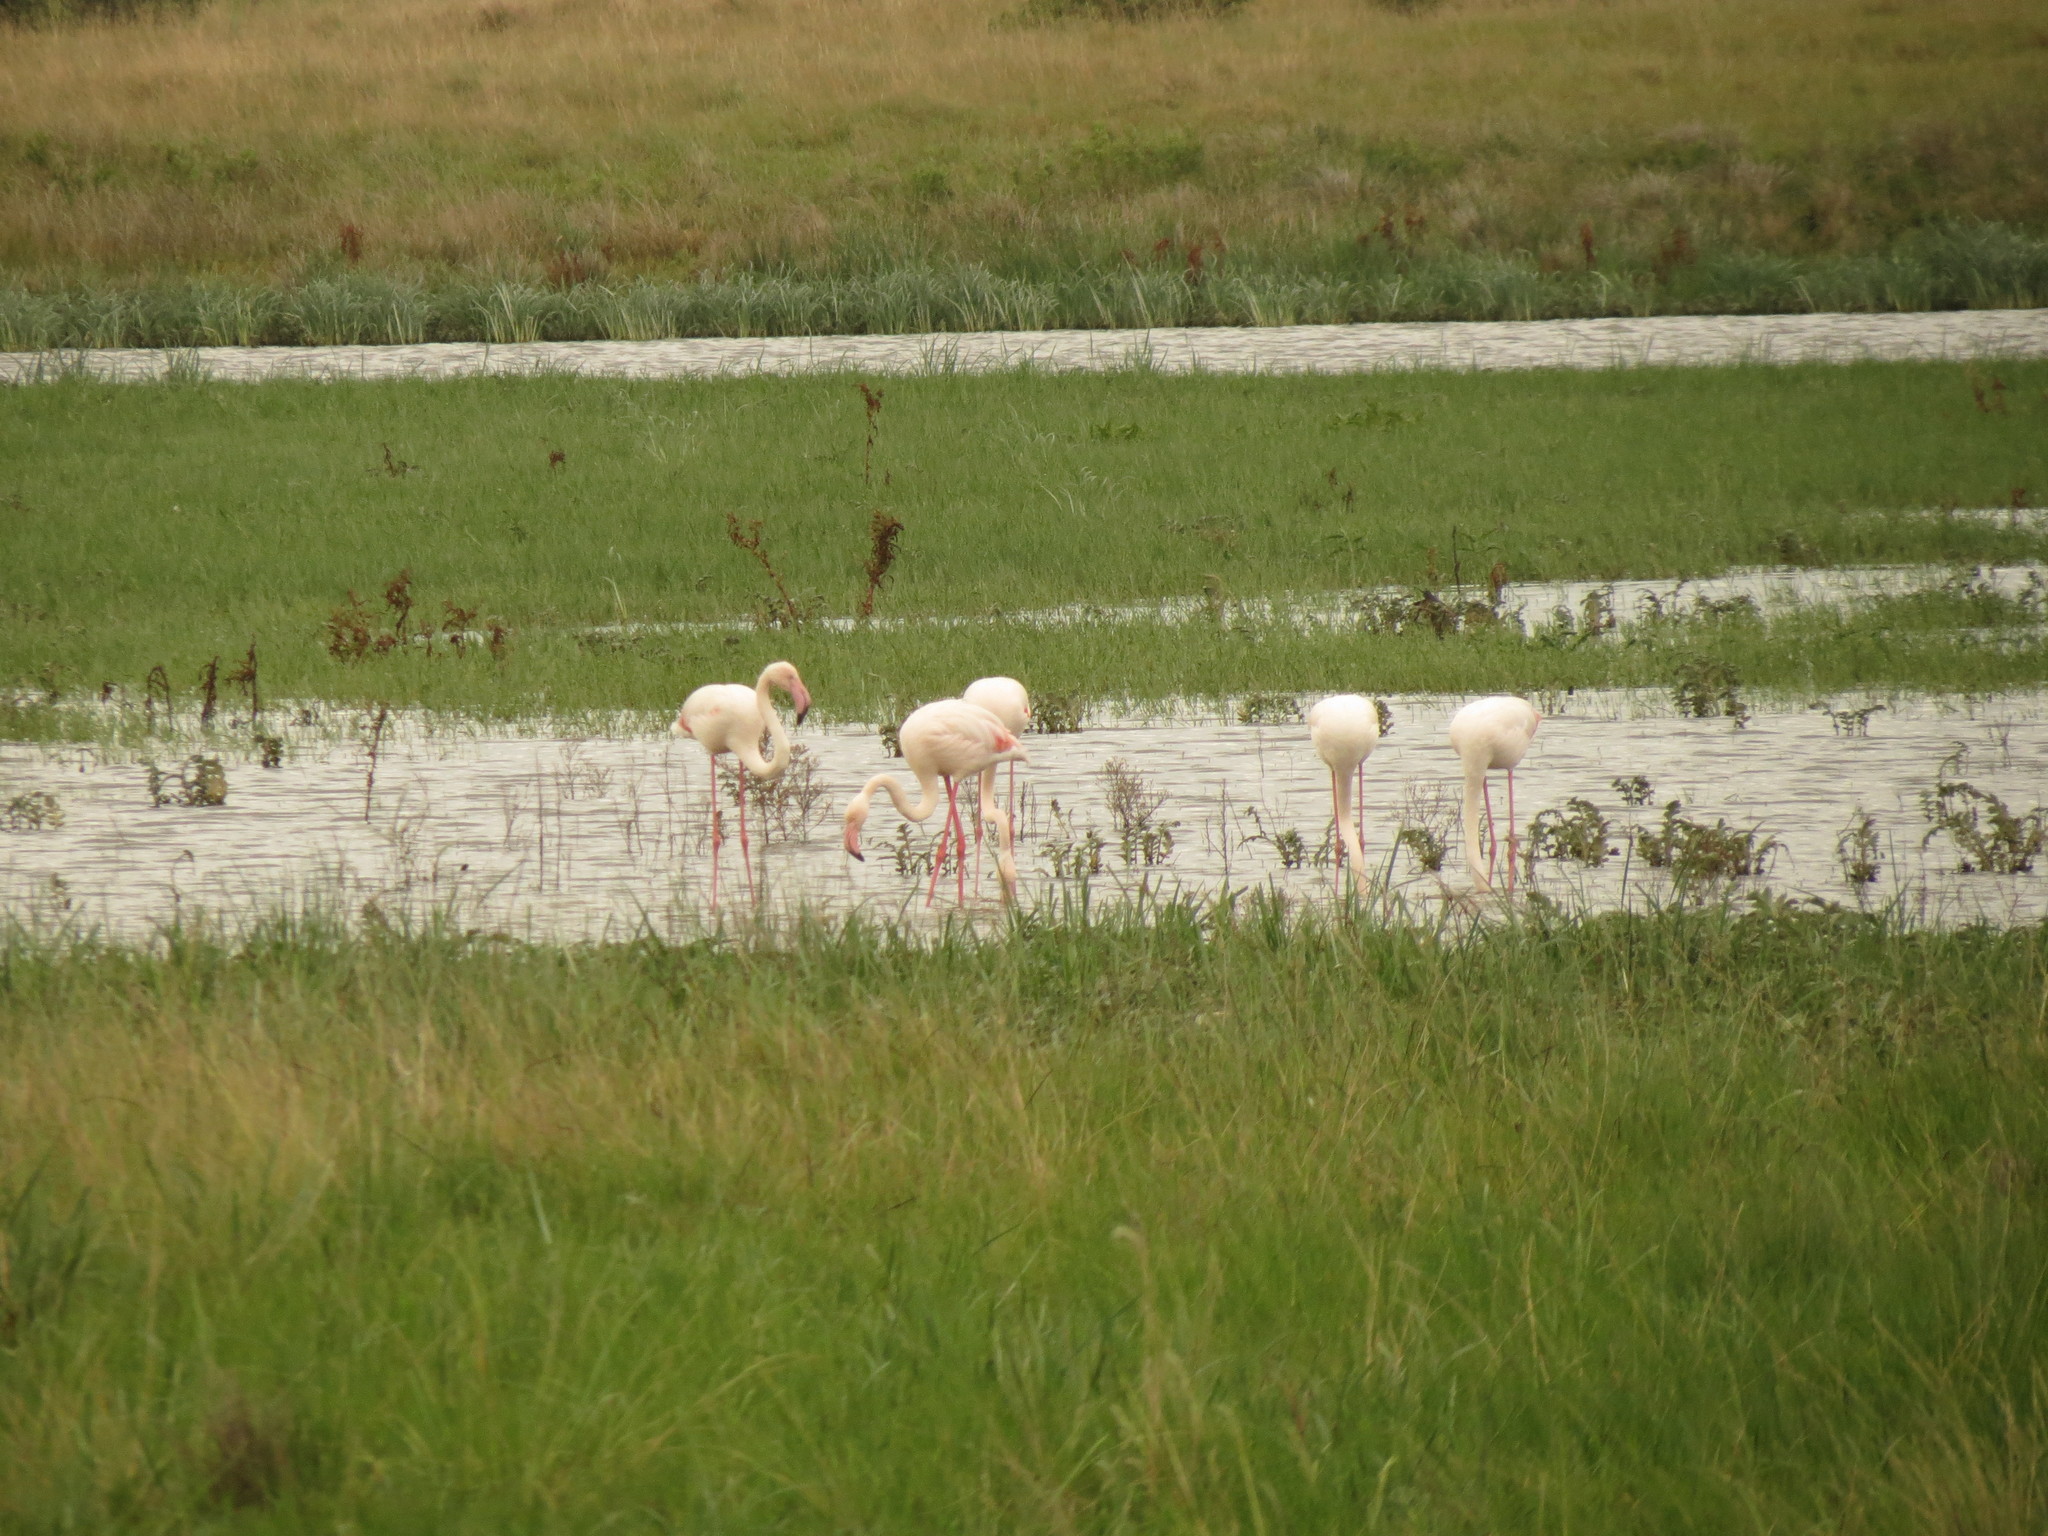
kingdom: Animalia
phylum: Chordata
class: Aves
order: Phoenicopteriformes
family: Phoenicopteridae
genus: Phoenicopterus
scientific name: Phoenicopterus roseus
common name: Greater flamingo
